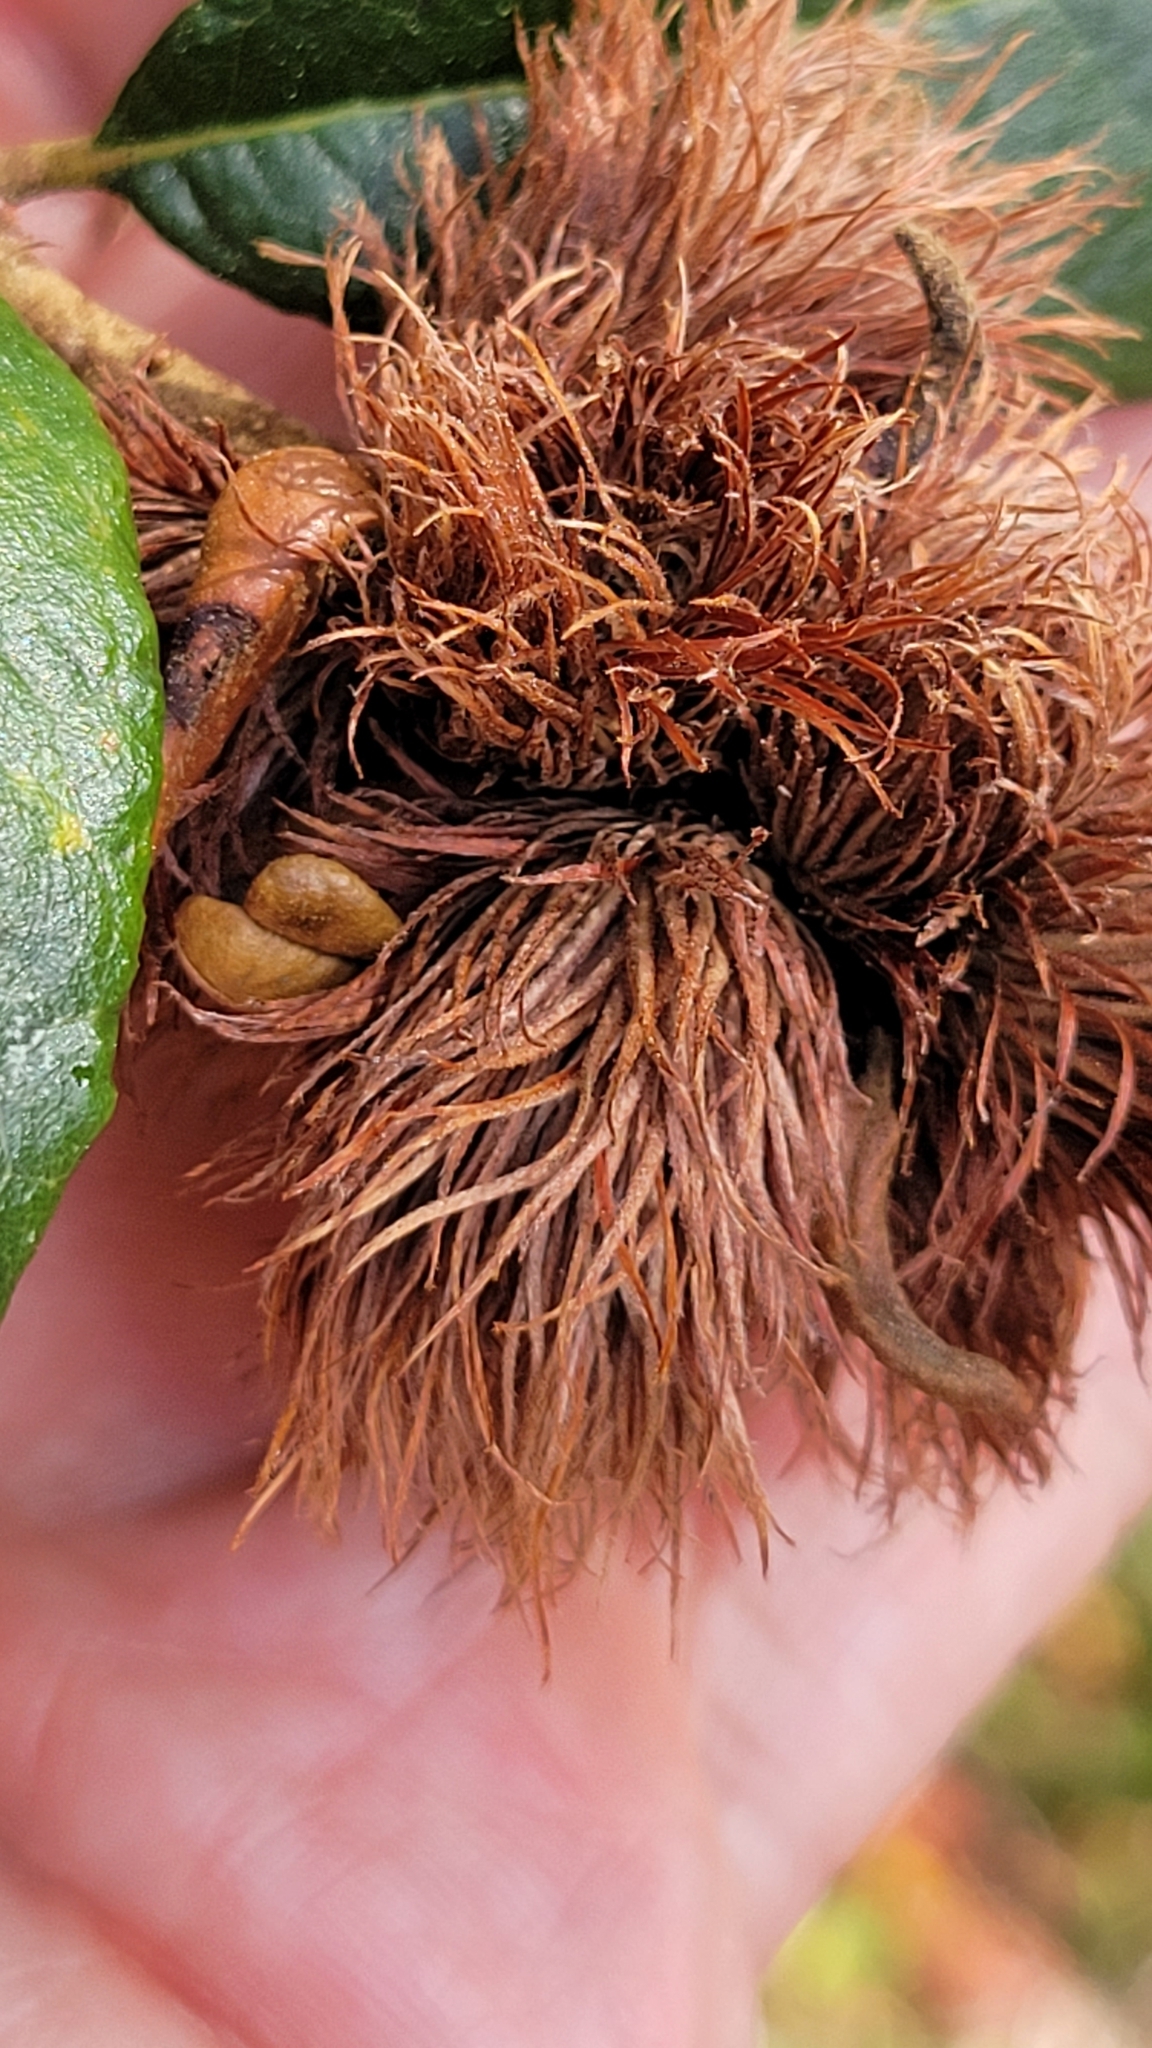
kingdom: Animalia
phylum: Arthropoda
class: Insecta
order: Hymenoptera
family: Cynipidae
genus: Andricus
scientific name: Andricus quercusfoliatus
